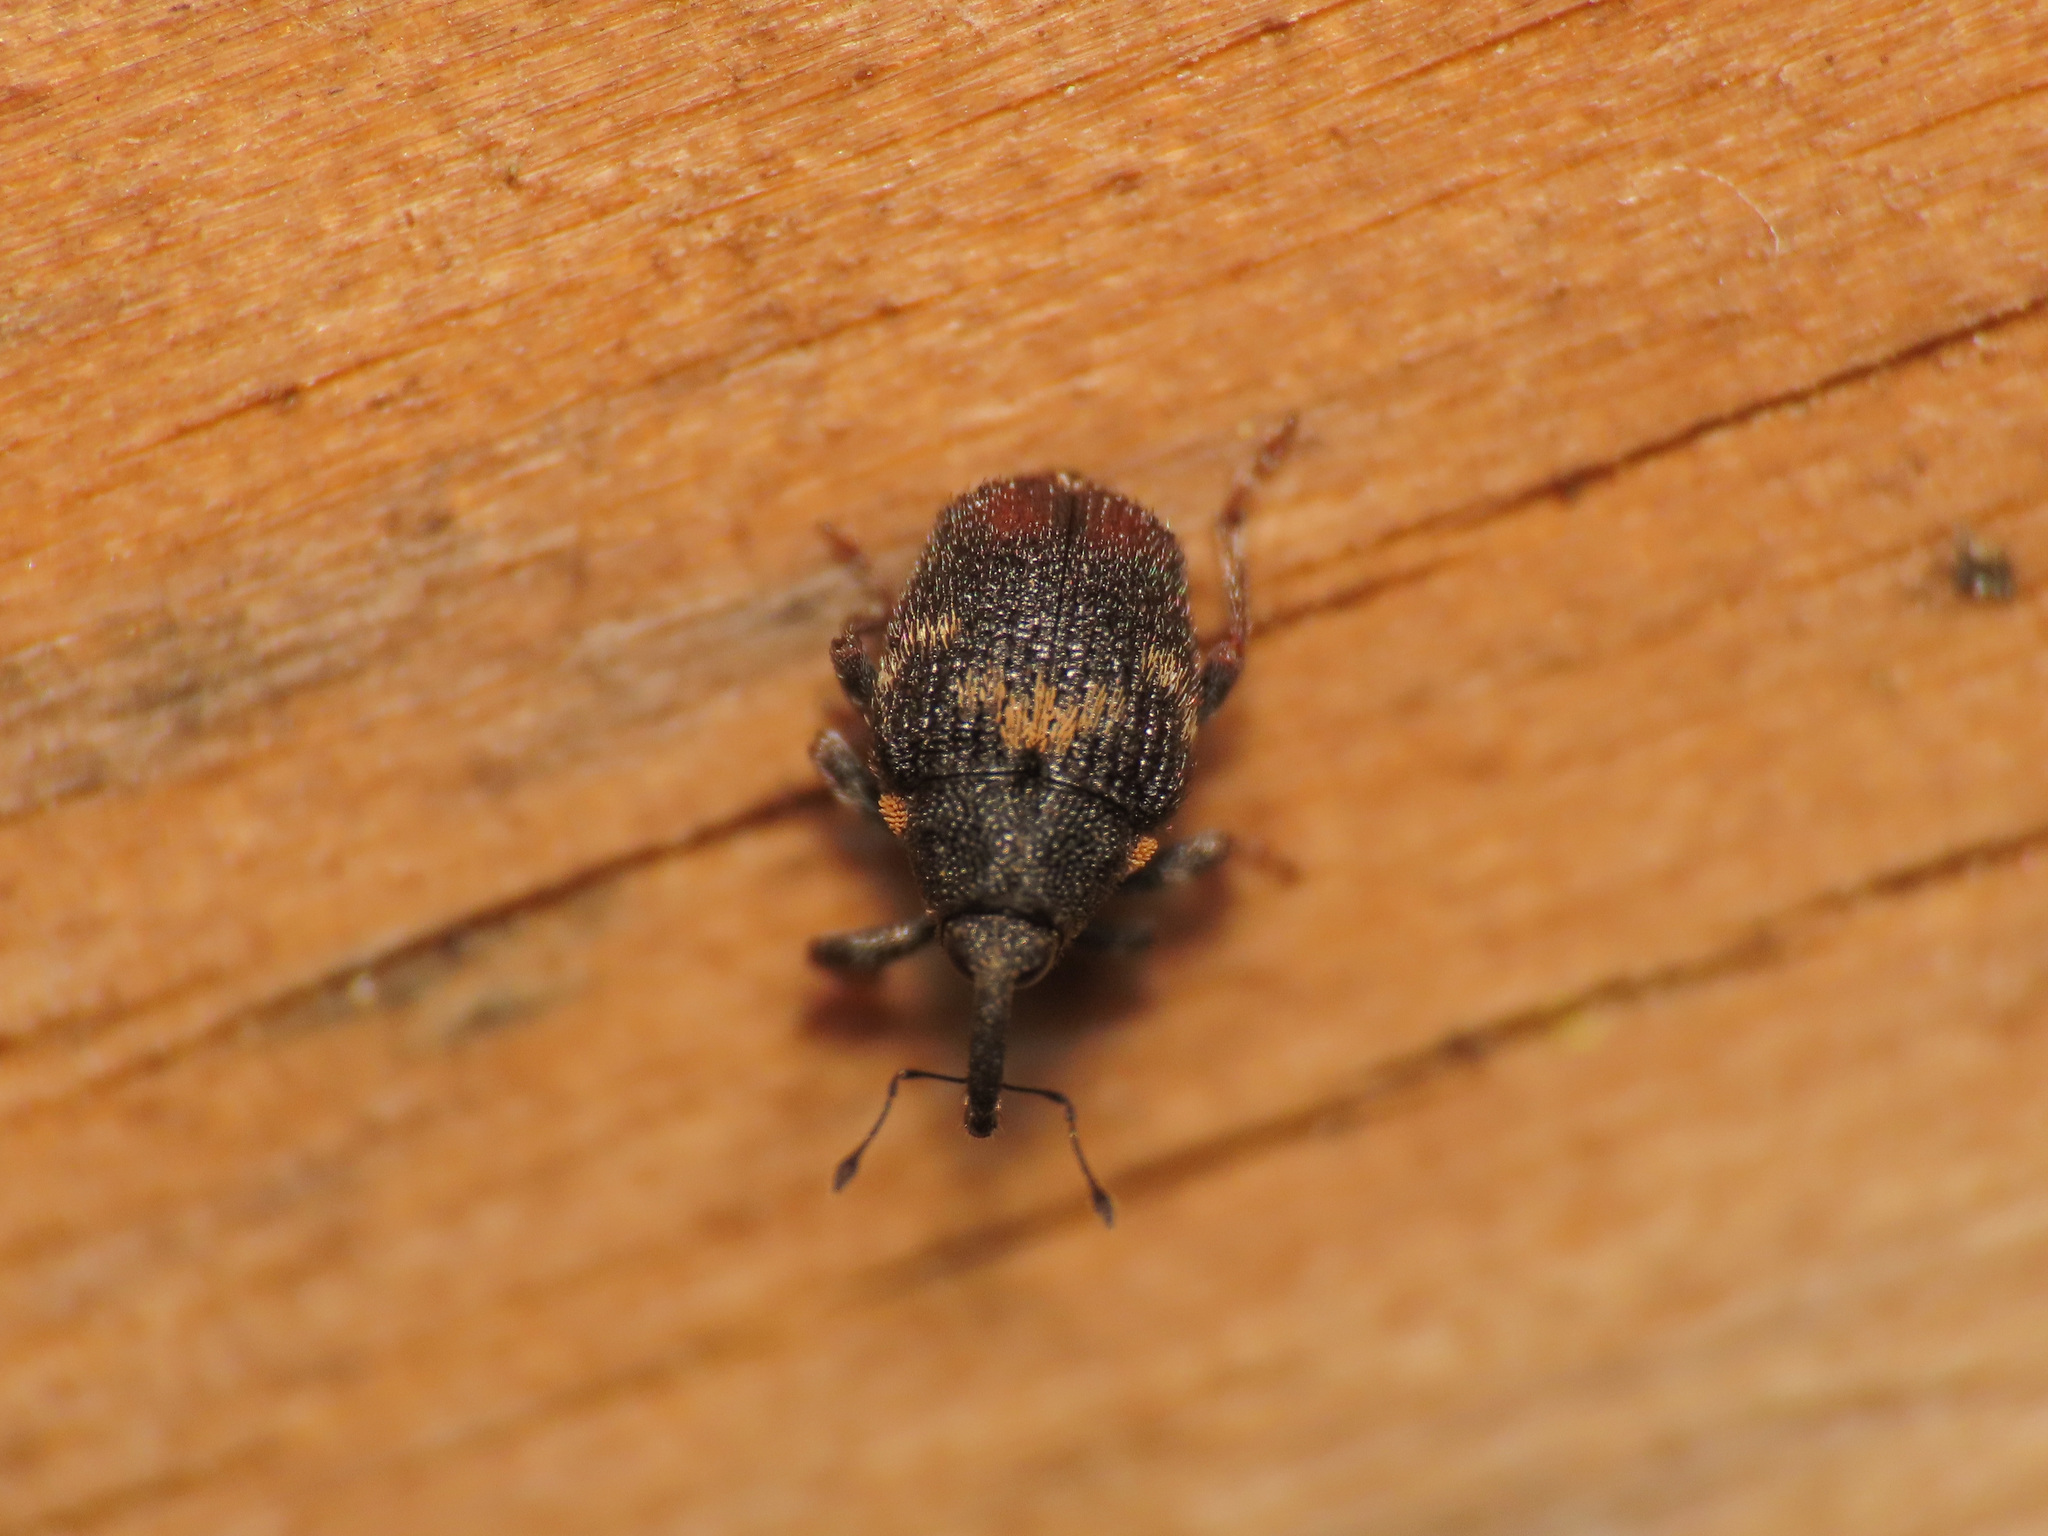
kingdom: Animalia
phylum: Arthropoda
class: Insecta
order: Coleoptera
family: Curculionidae
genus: Ranunculiphilus
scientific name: Ranunculiphilus italicus
